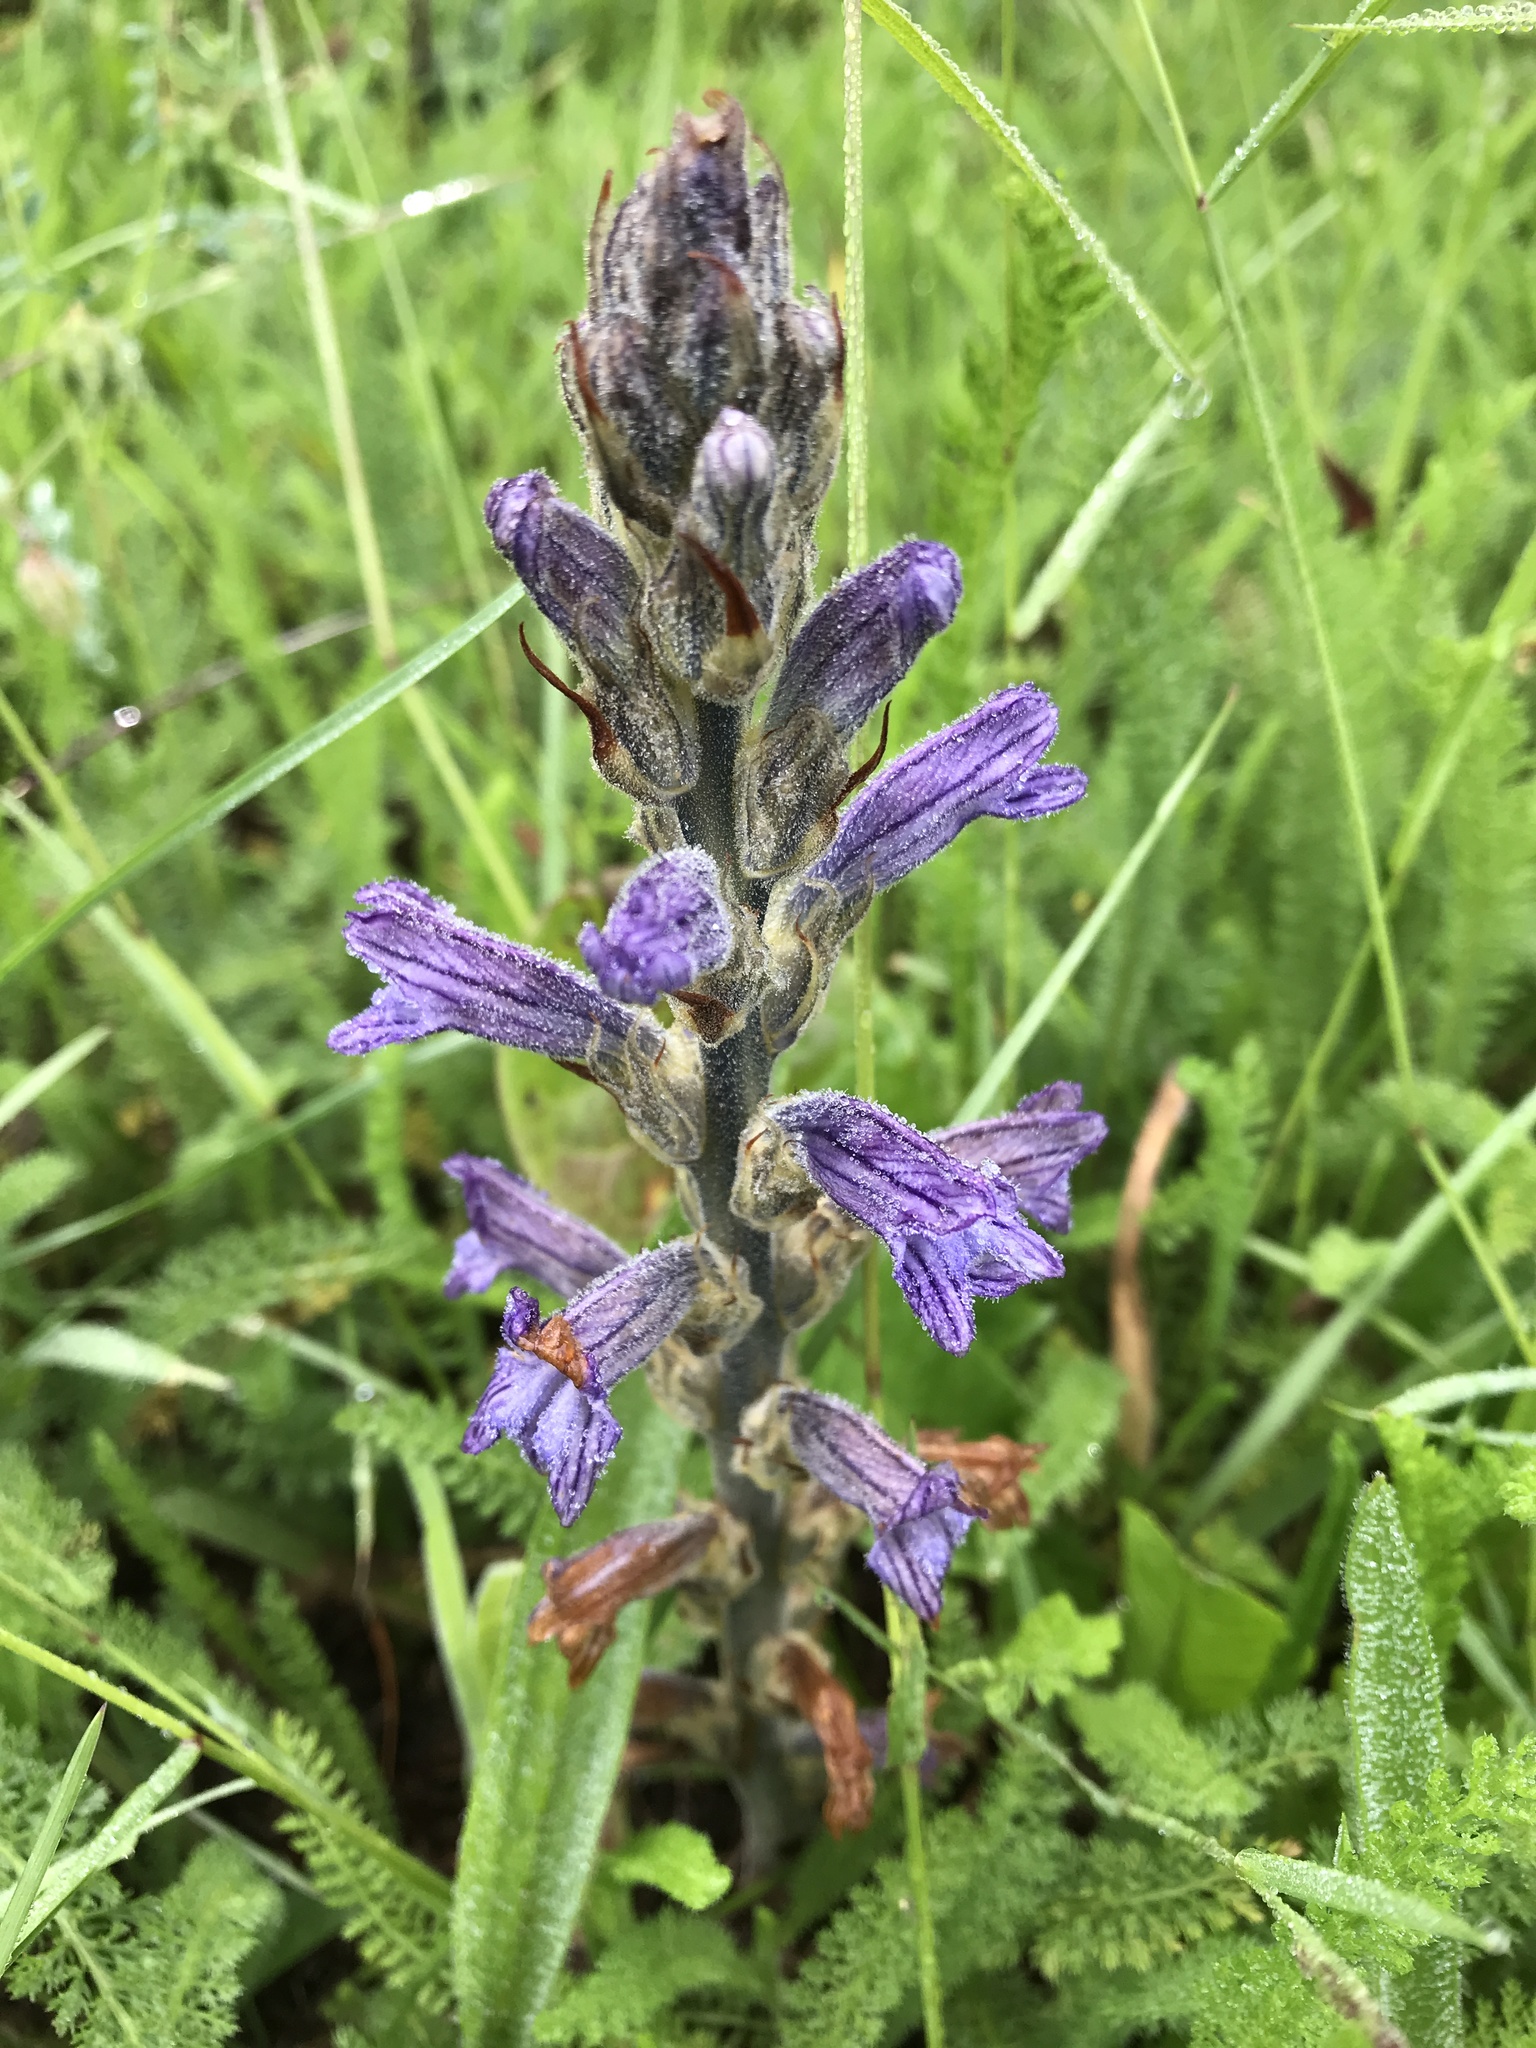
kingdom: Plantae
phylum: Tracheophyta
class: Magnoliopsida
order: Lamiales
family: Orobanchaceae
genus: Phelipanche
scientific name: Phelipanche purpurea
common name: Purple broomrape
